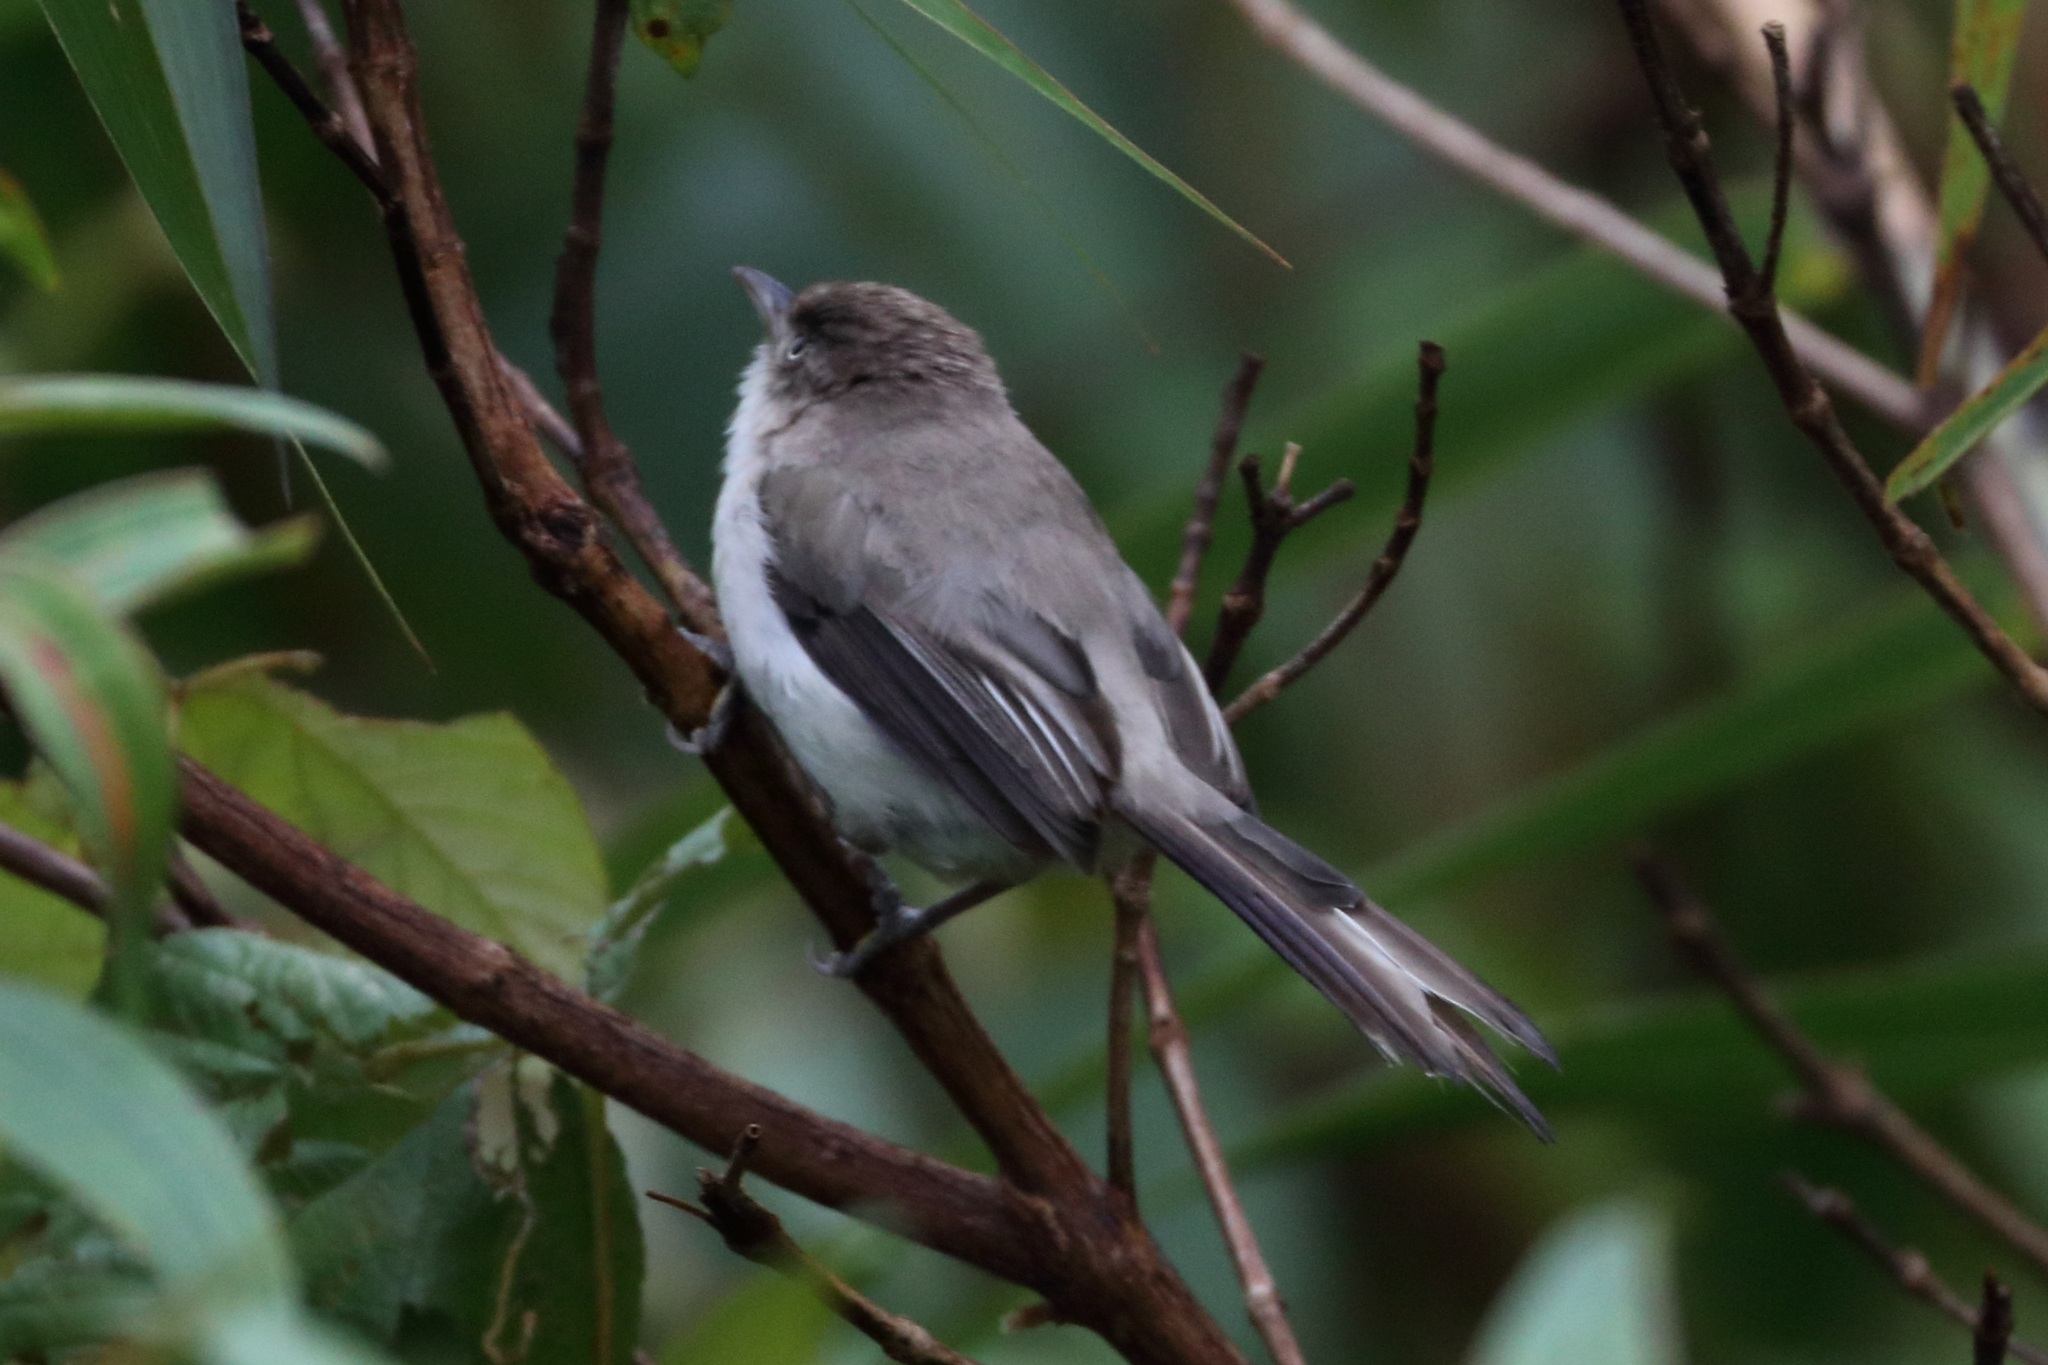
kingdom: Animalia
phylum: Chordata
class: Aves
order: Passeriformes
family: Leiothrichidae
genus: Minla
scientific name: Minla cyanouroptera
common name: Blue-winged minla
